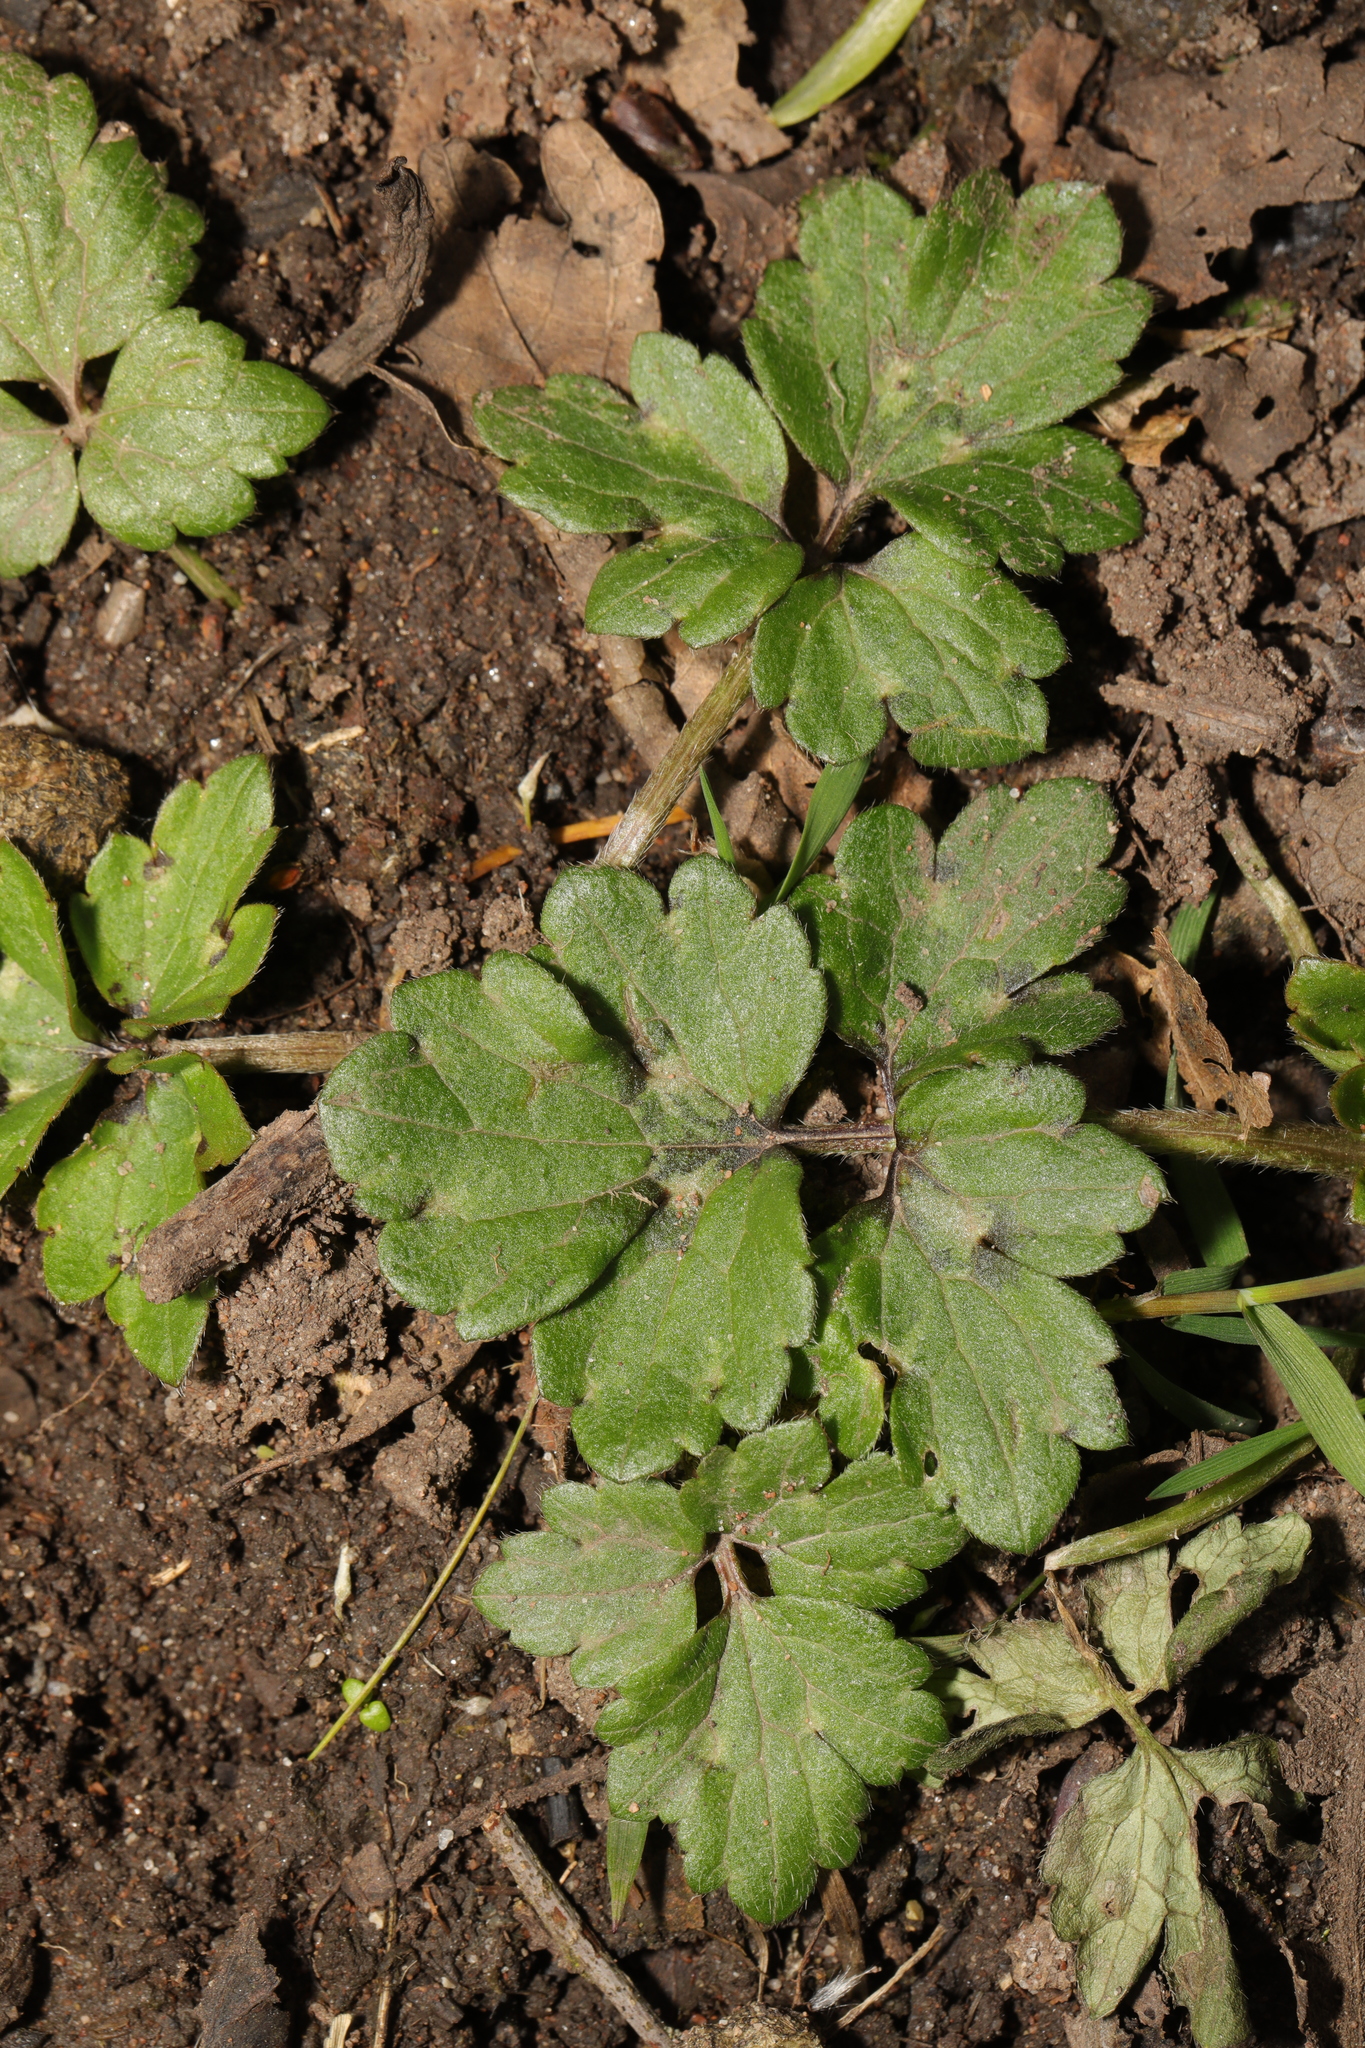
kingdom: Plantae
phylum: Tracheophyta
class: Magnoliopsida
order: Ranunculales
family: Ranunculaceae
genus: Ranunculus
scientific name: Ranunculus repens
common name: Creeping buttercup
